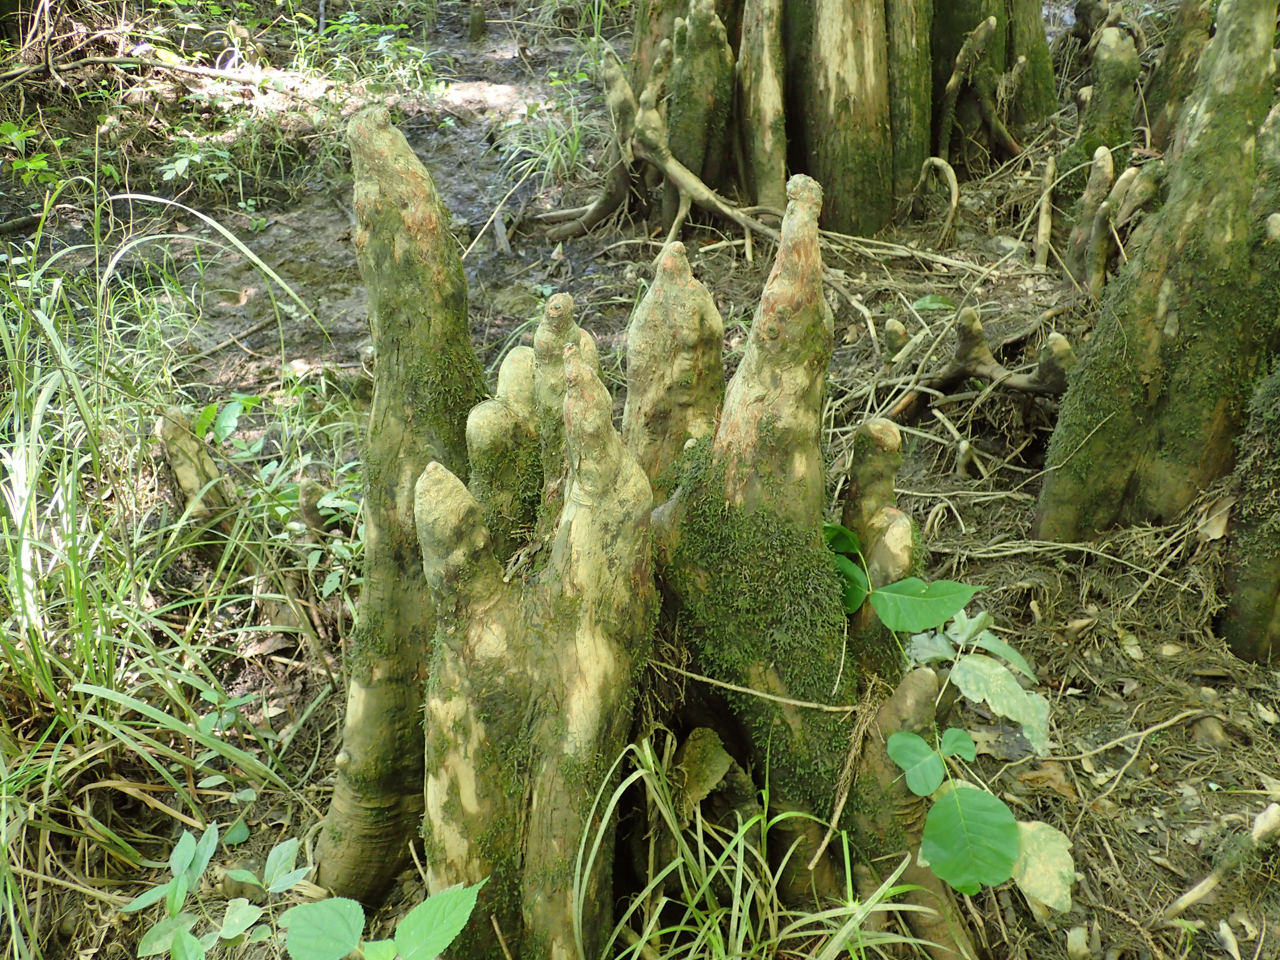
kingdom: Plantae
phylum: Tracheophyta
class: Pinopsida
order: Pinales
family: Cupressaceae
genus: Taxodium
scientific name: Taxodium distichum
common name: Bald cypress
